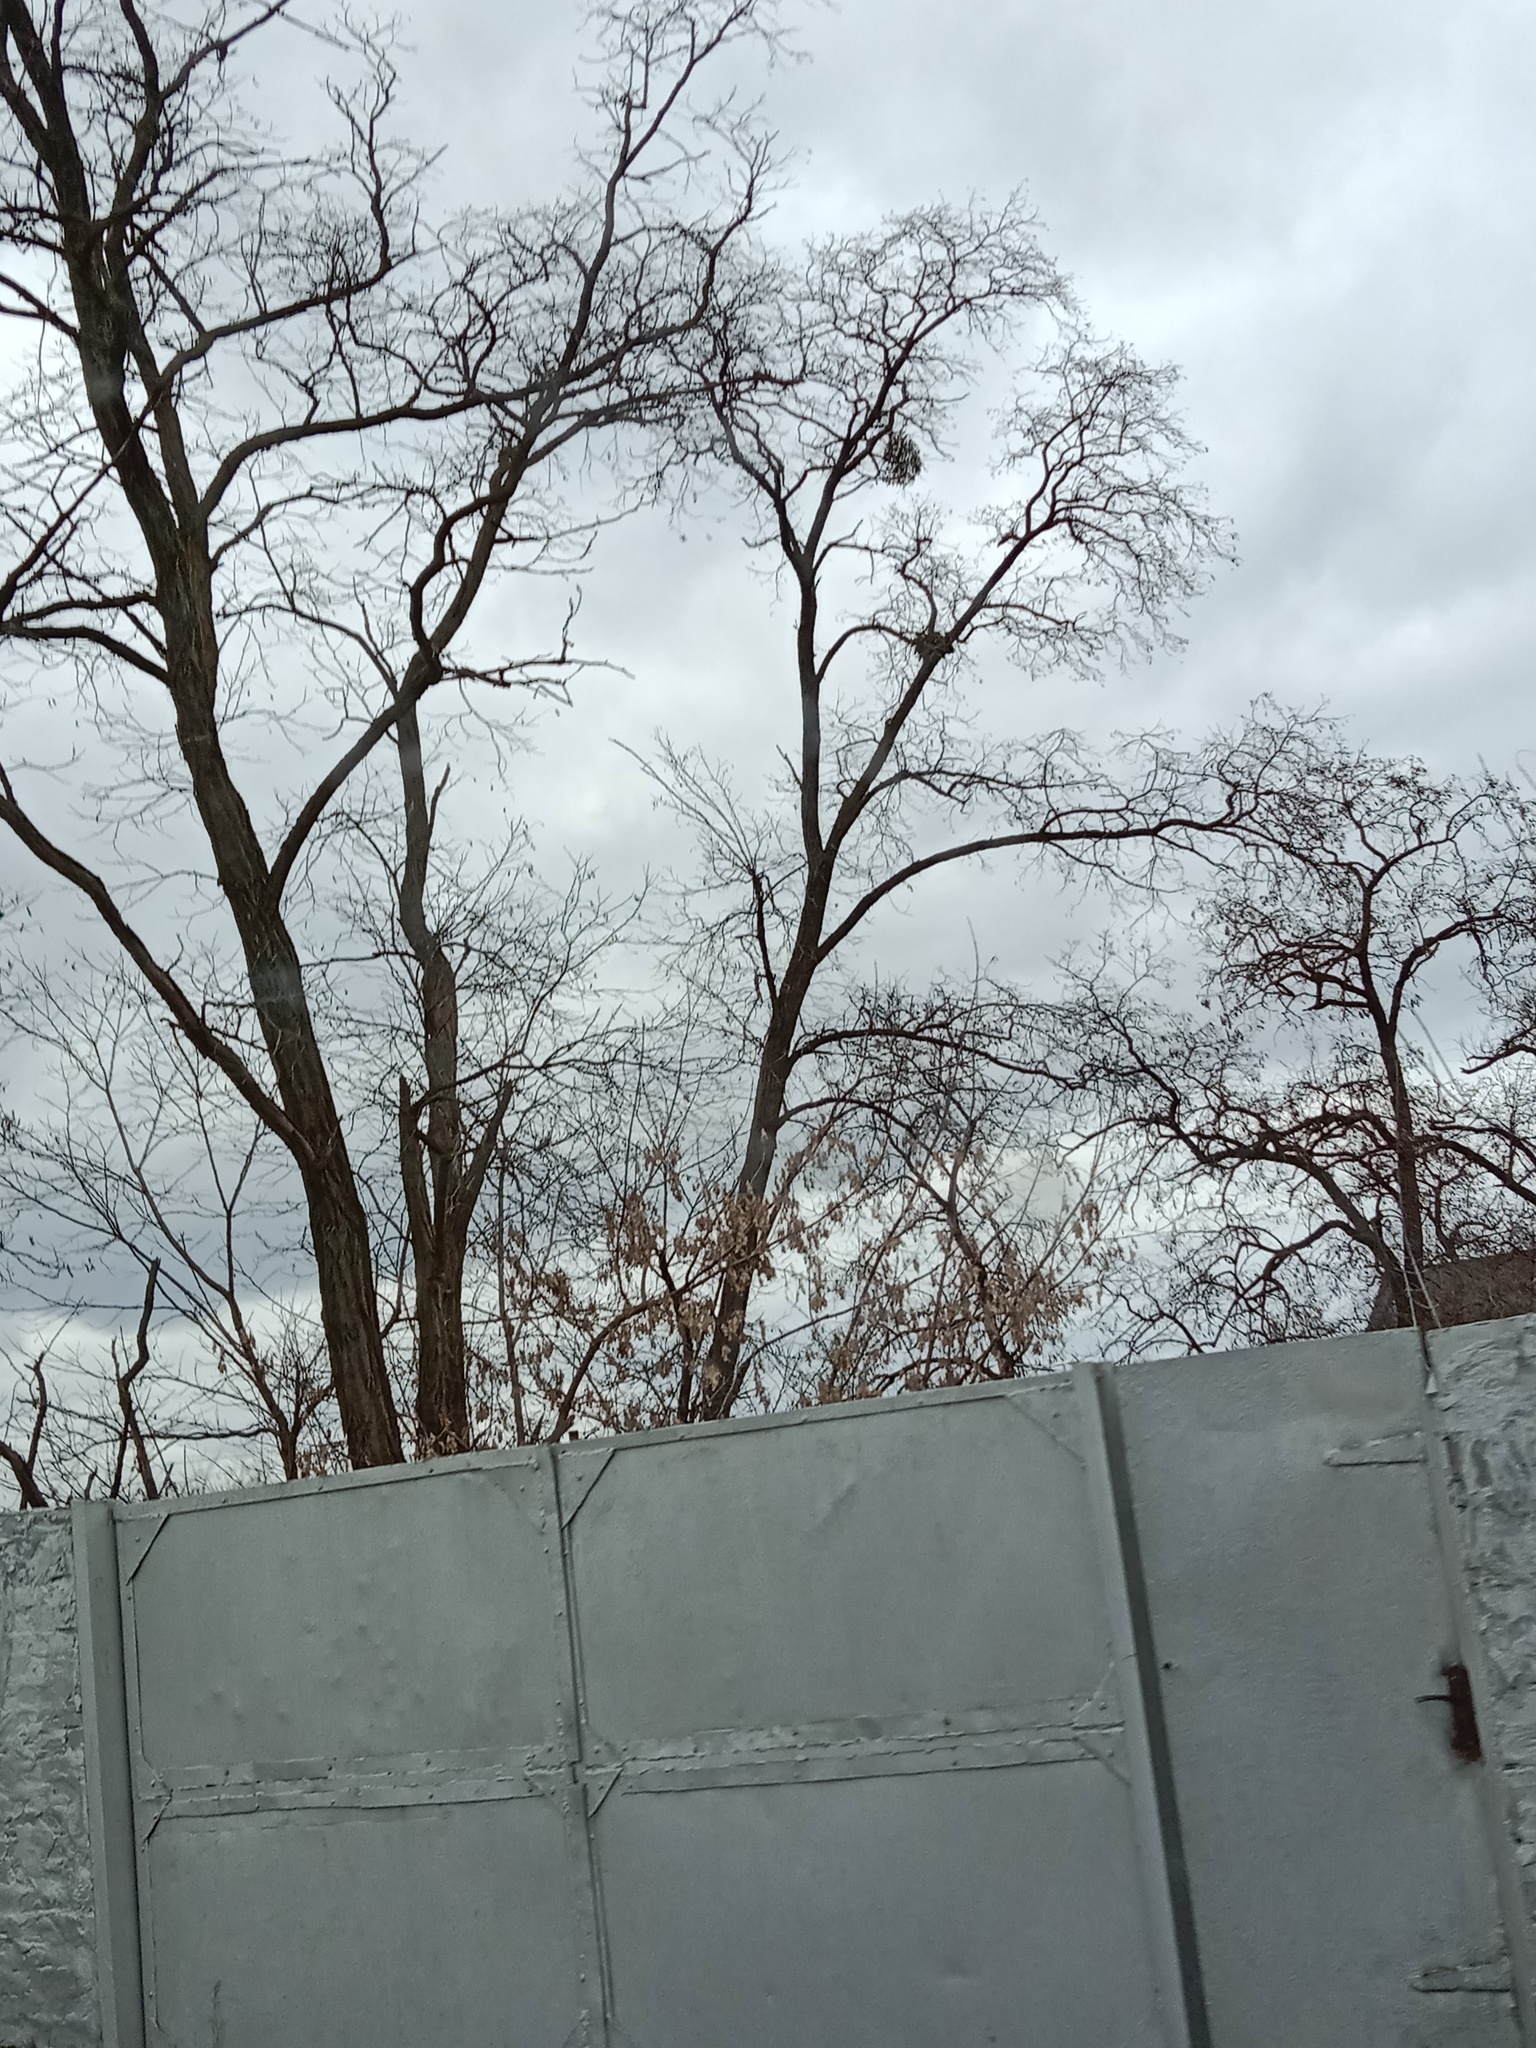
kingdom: Plantae
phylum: Tracheophyta
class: Magnoliopsida
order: Santalales
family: Viscaceae
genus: Viscum
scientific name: Viscum album
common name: Mistletoe
